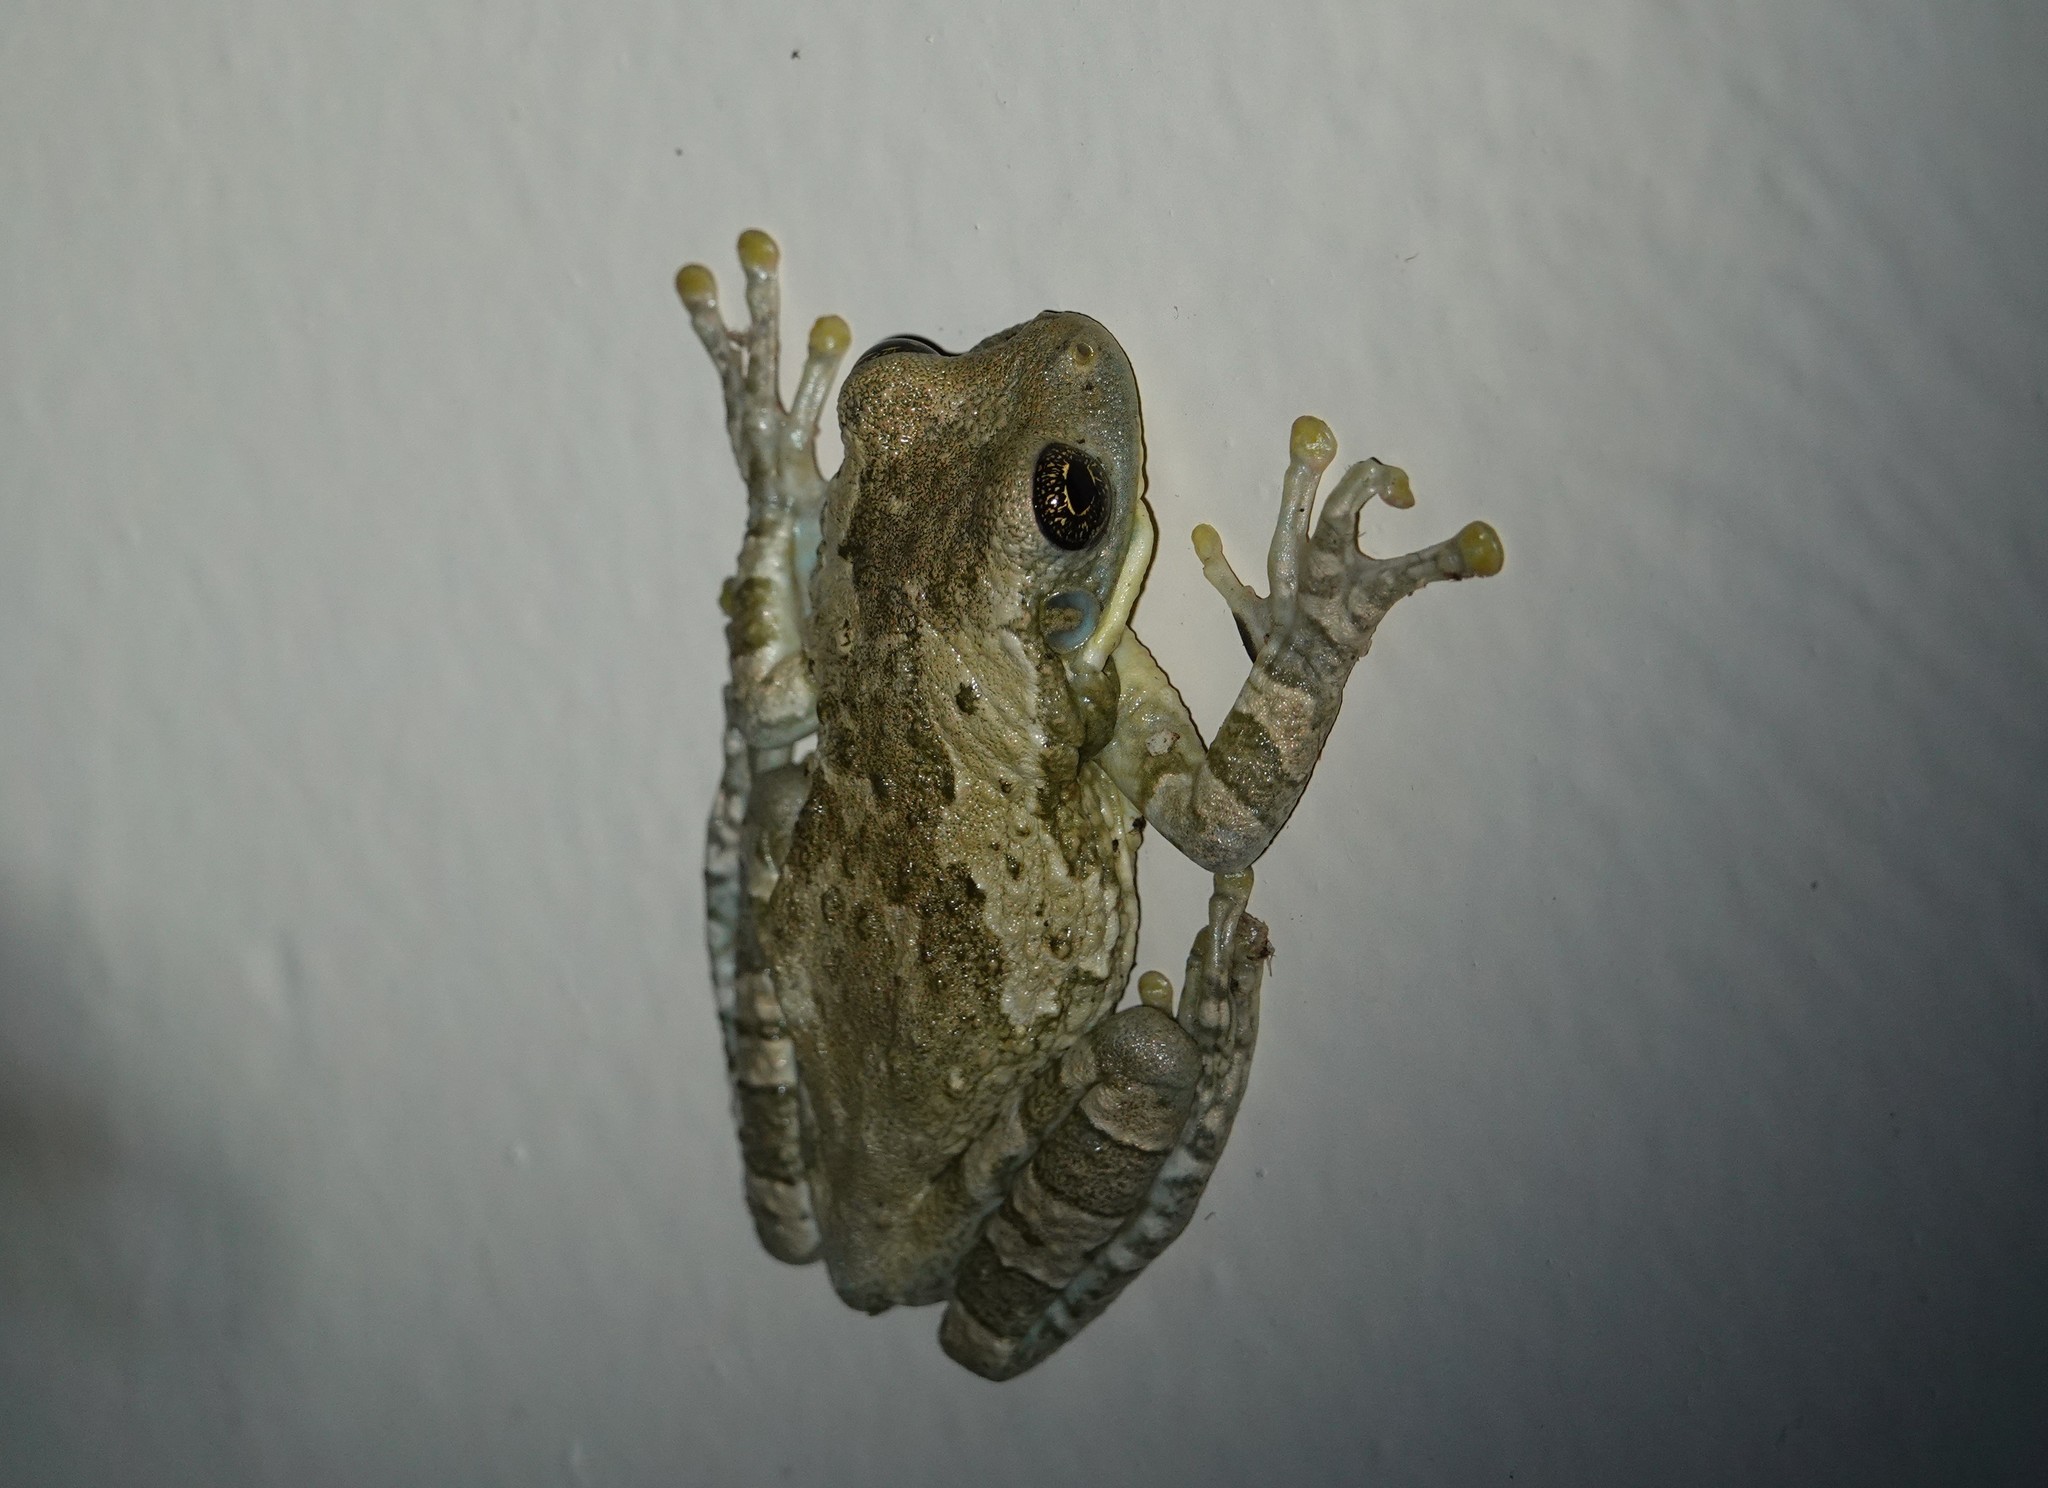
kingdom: Animalia
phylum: Chordata
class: Amphibia
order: Anura
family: Hylidae
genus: Trachycephalus
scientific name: Trachycephalus typhonius
